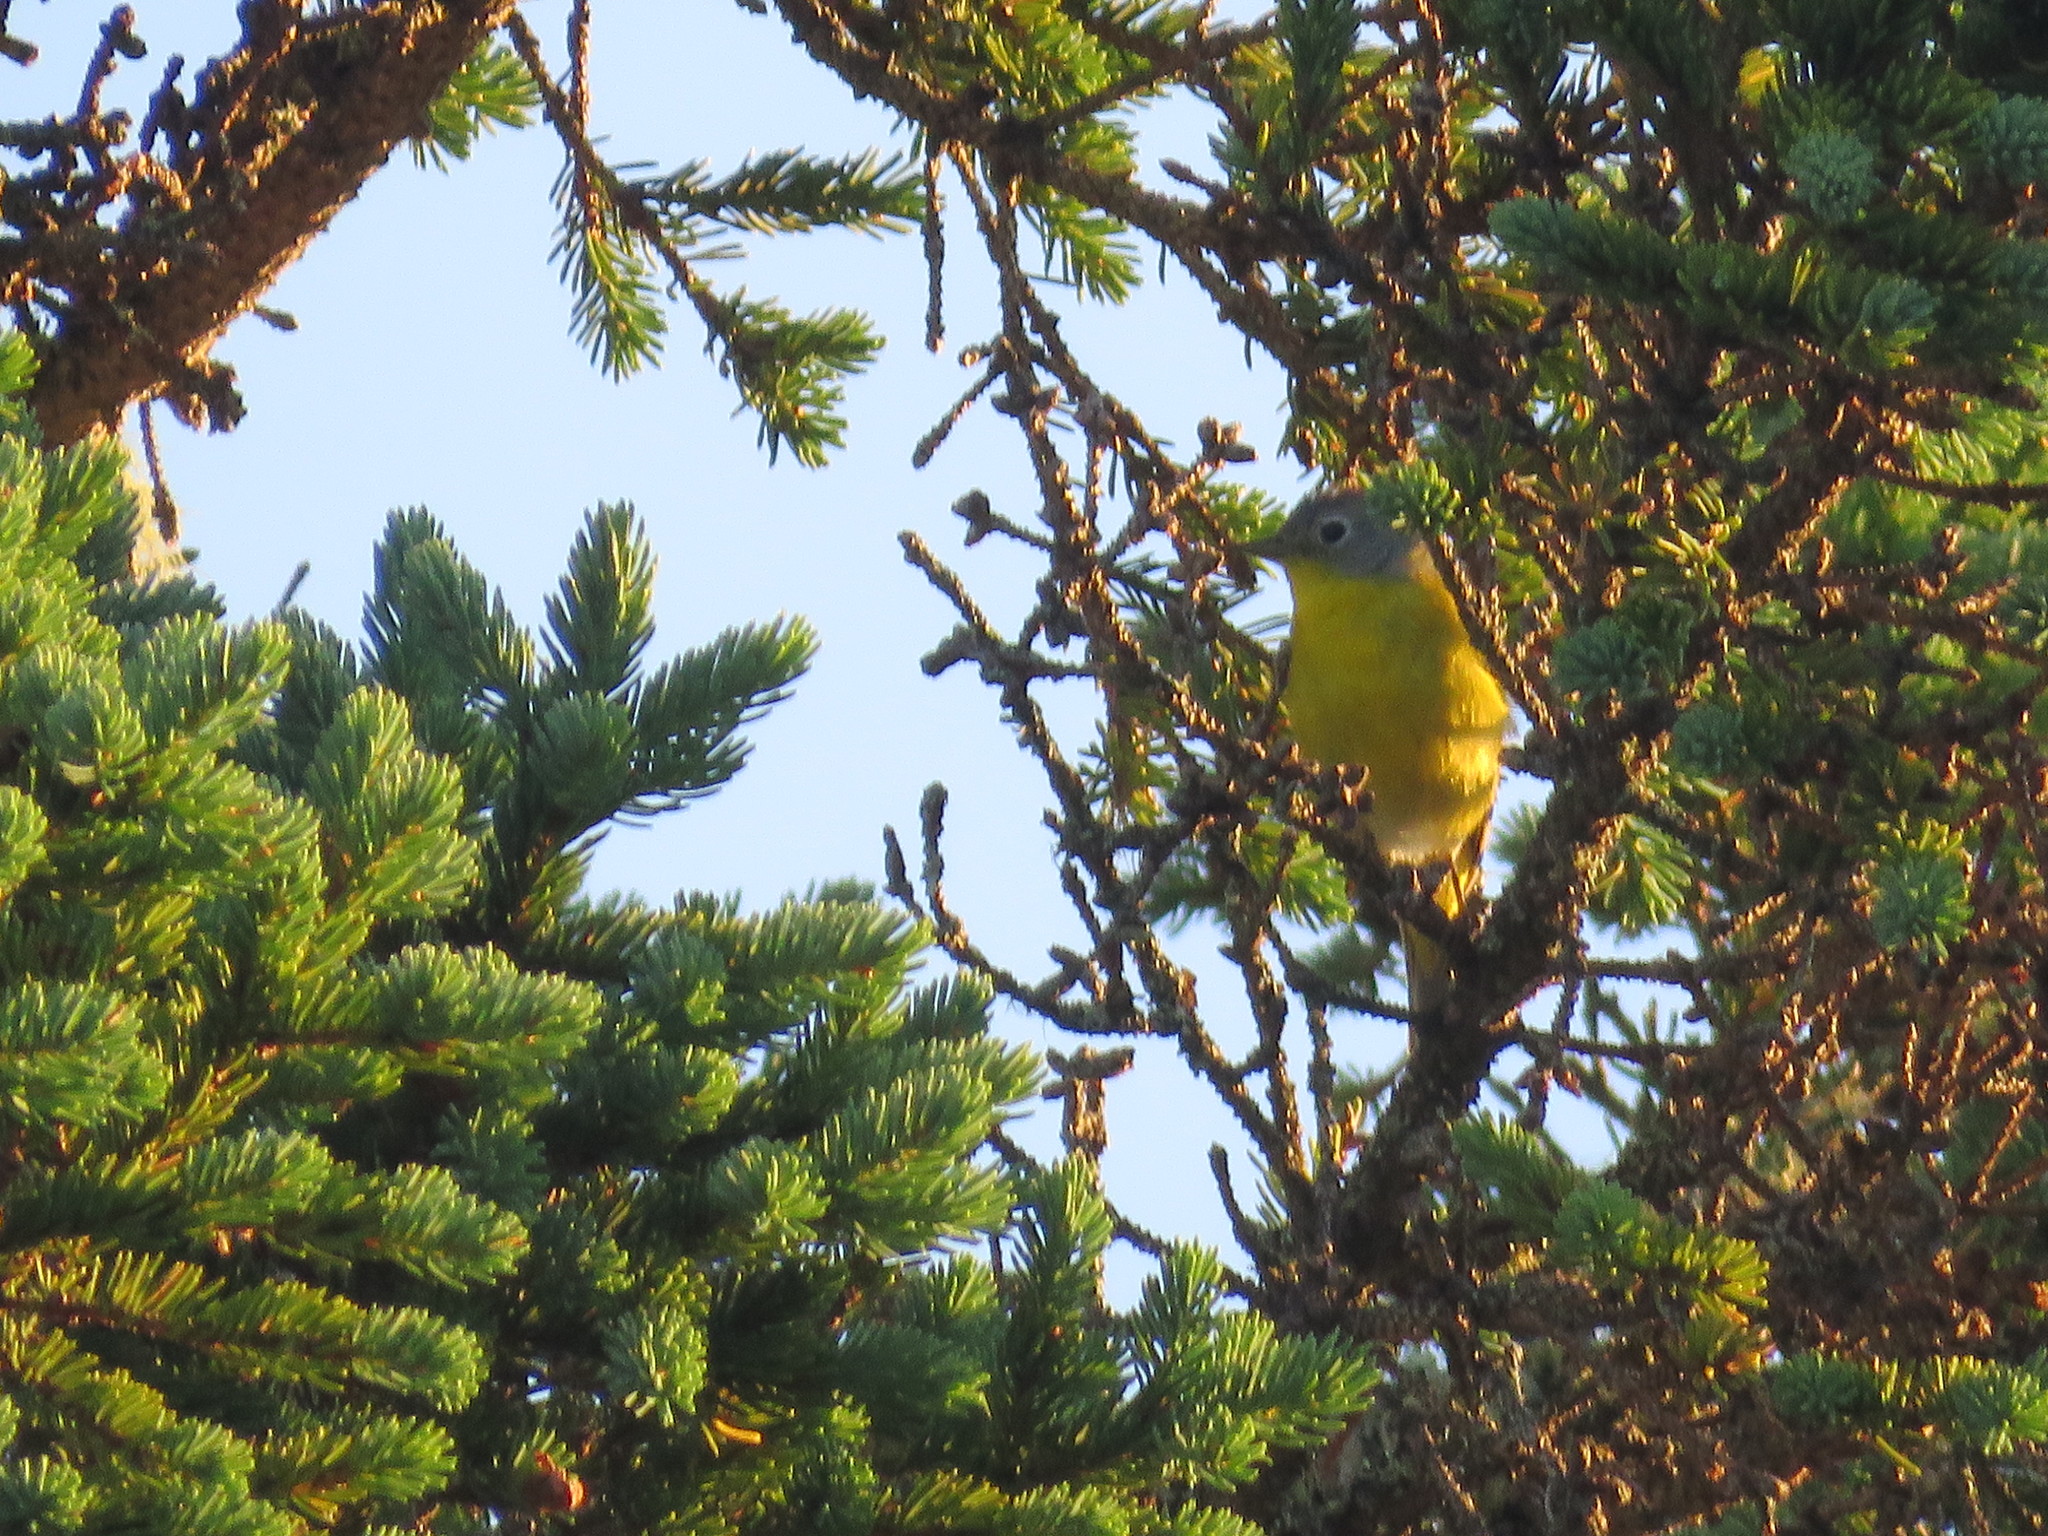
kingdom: Animalia
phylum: Chordata
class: Aves
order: Passeriformes
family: Parulidae
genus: Leiothlypis
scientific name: Leiothlypis ruficapilla
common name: Nashville warbler
